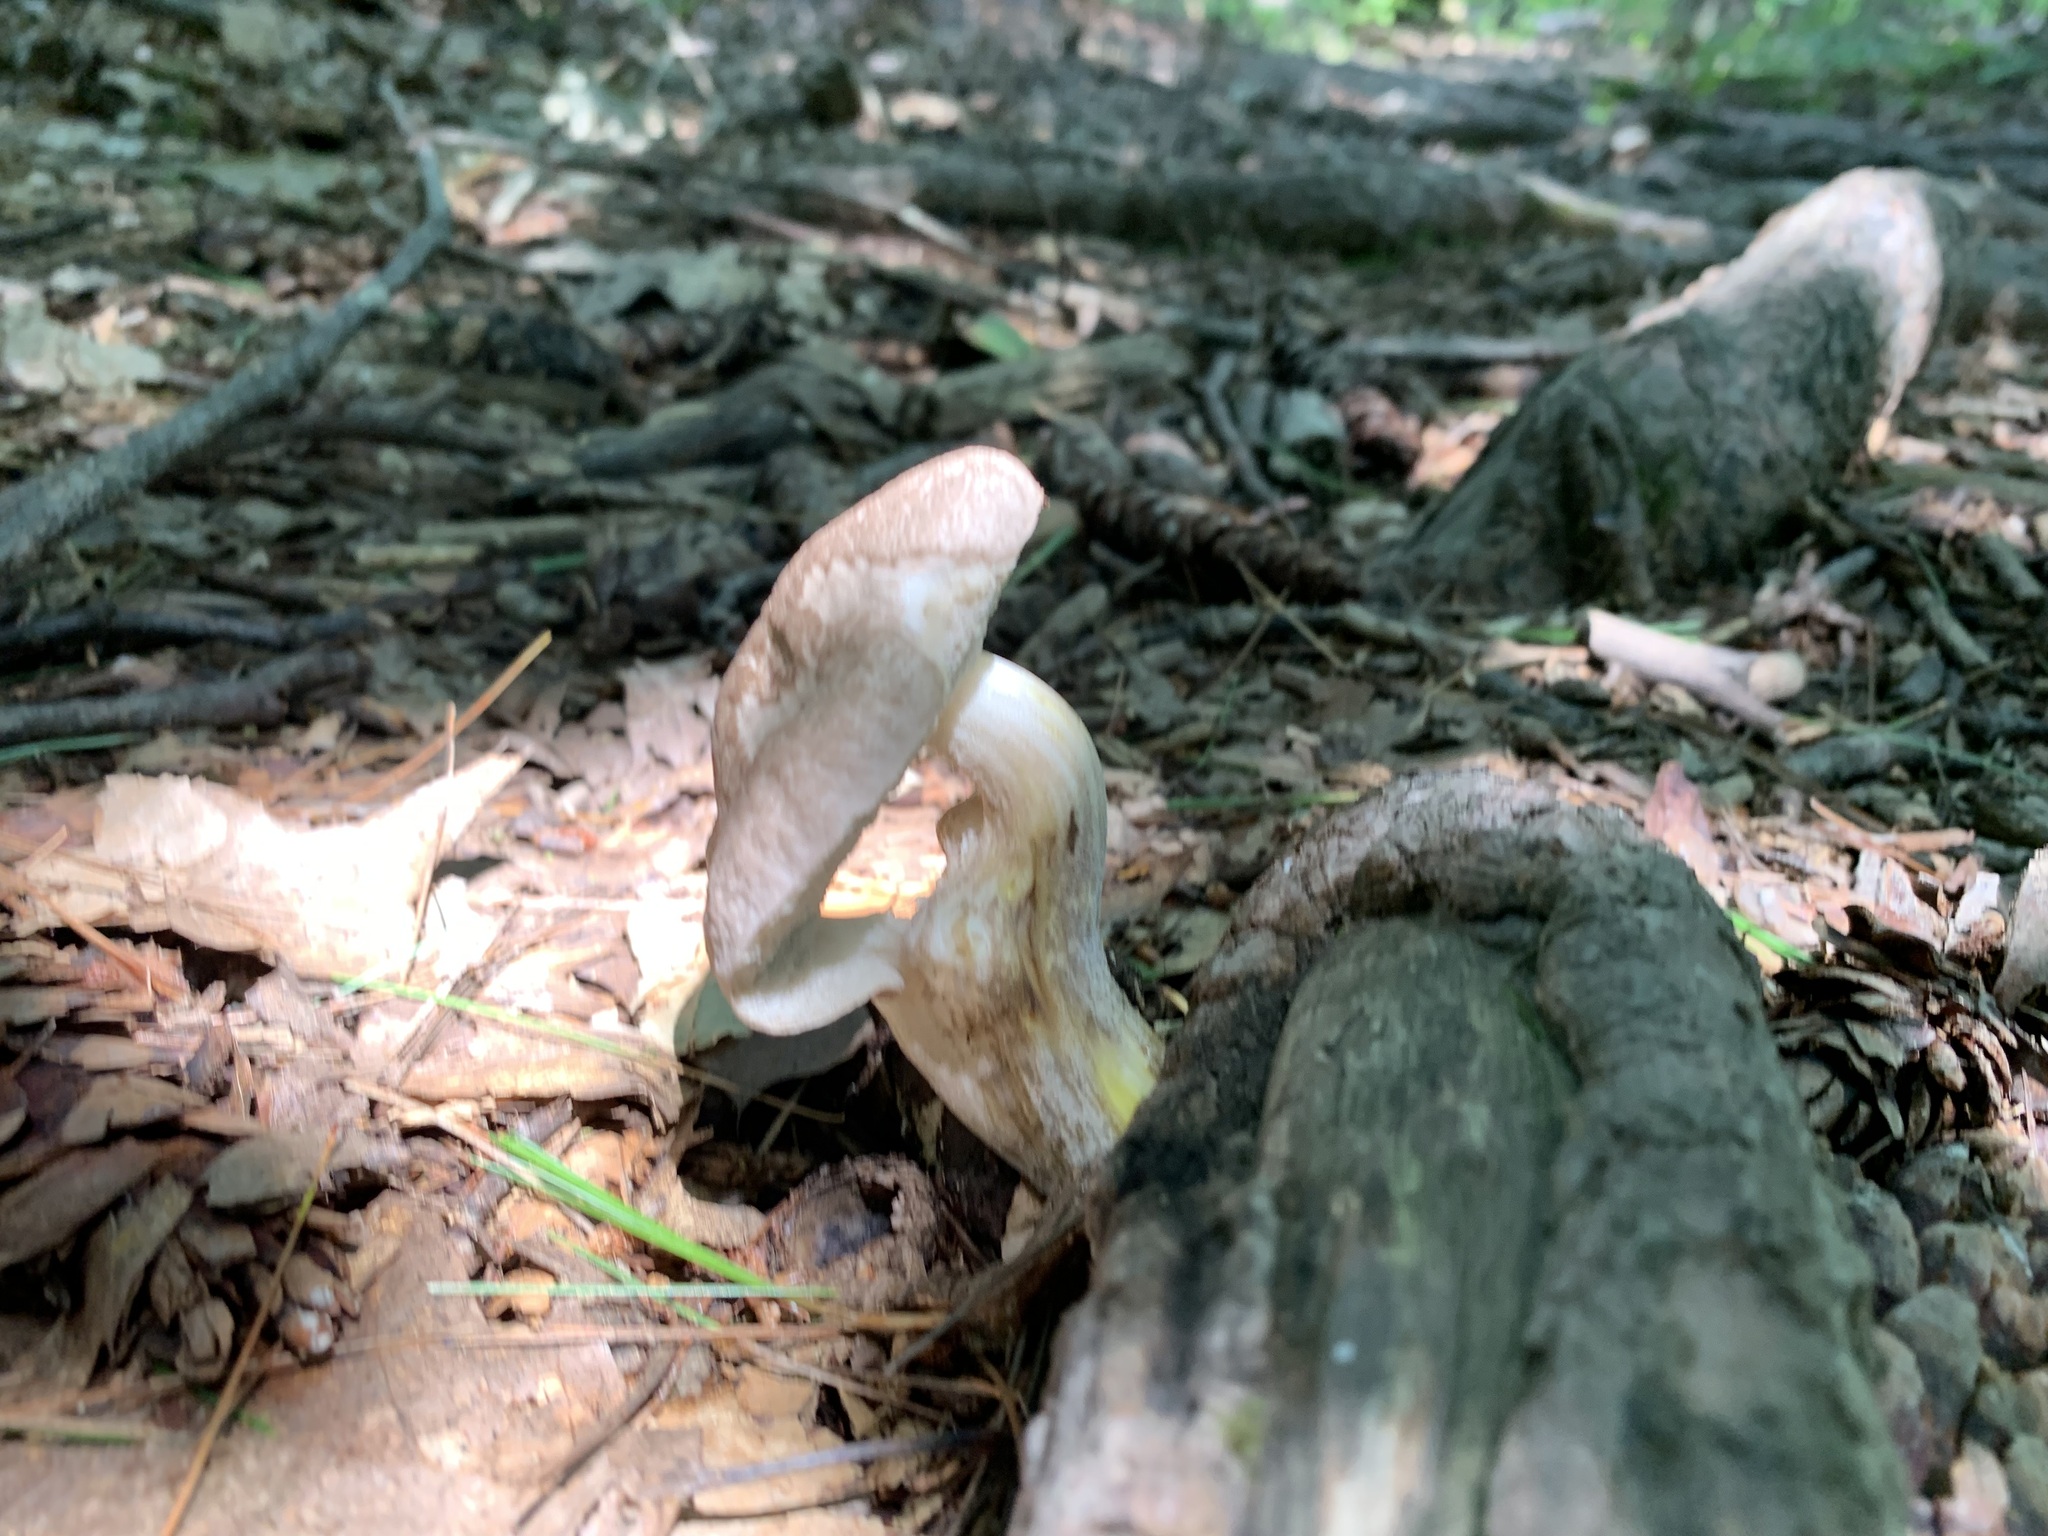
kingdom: Fungi
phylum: Basidiomycota
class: Agaricomycetes
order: Boletales
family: Boletaceae
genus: Harrya
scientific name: Harrya chromipes
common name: Chrome-footed bolete
